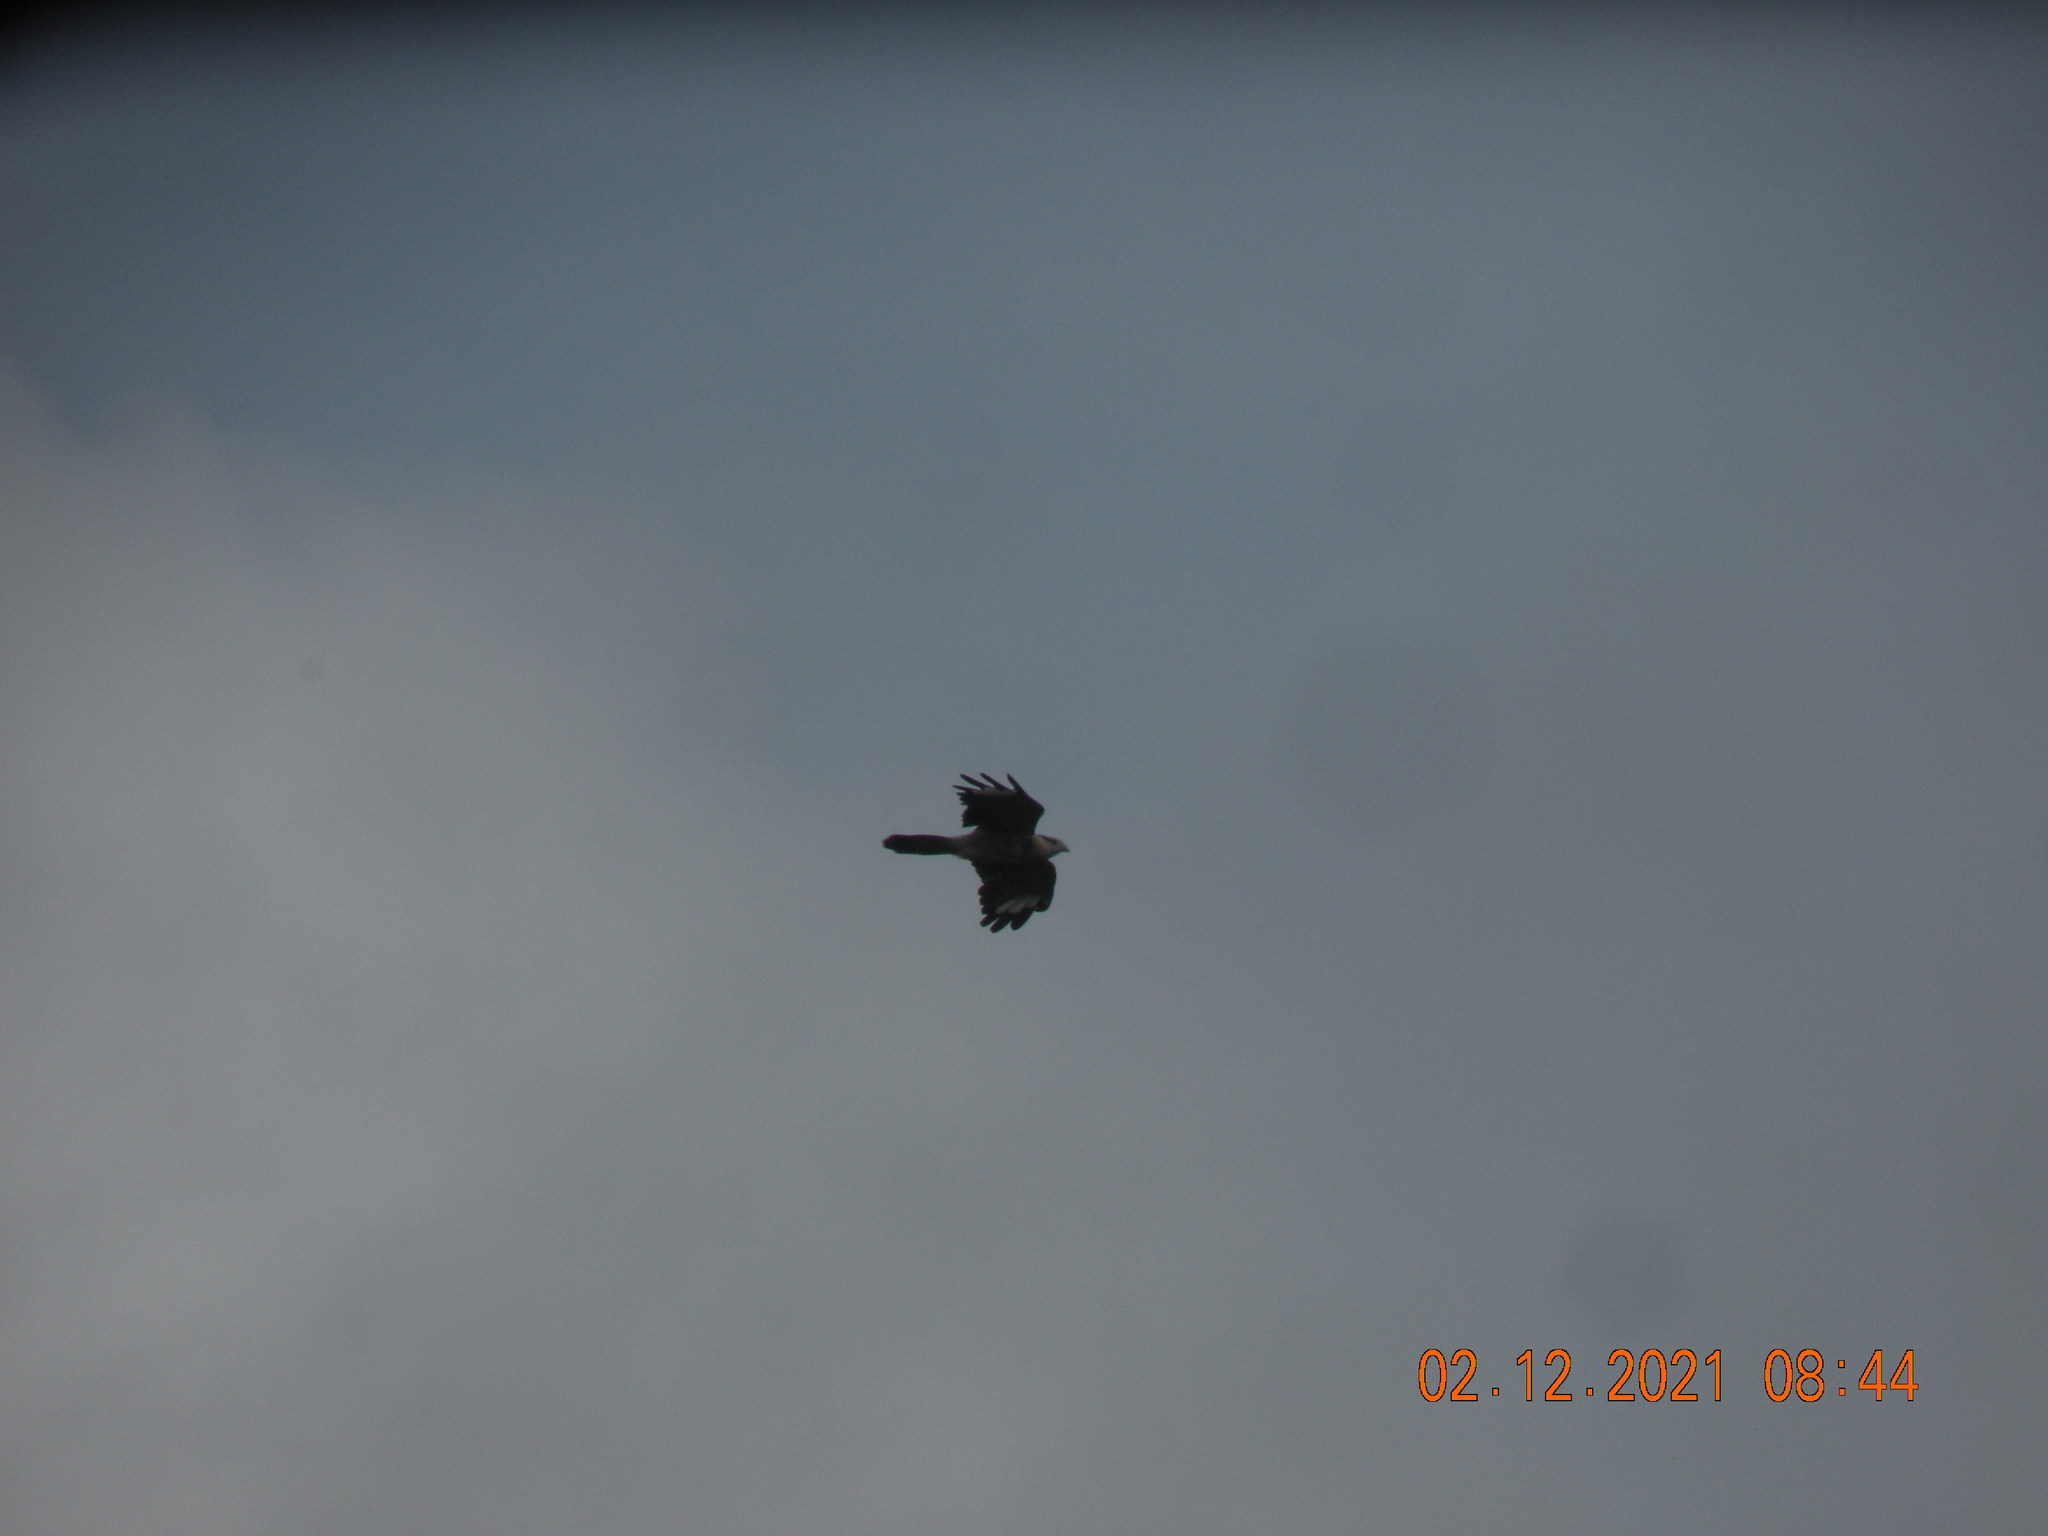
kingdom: Animalia
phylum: Chordata
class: Aves
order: Falconiformes
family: Falconidae
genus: Daptrius
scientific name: Daptrius
